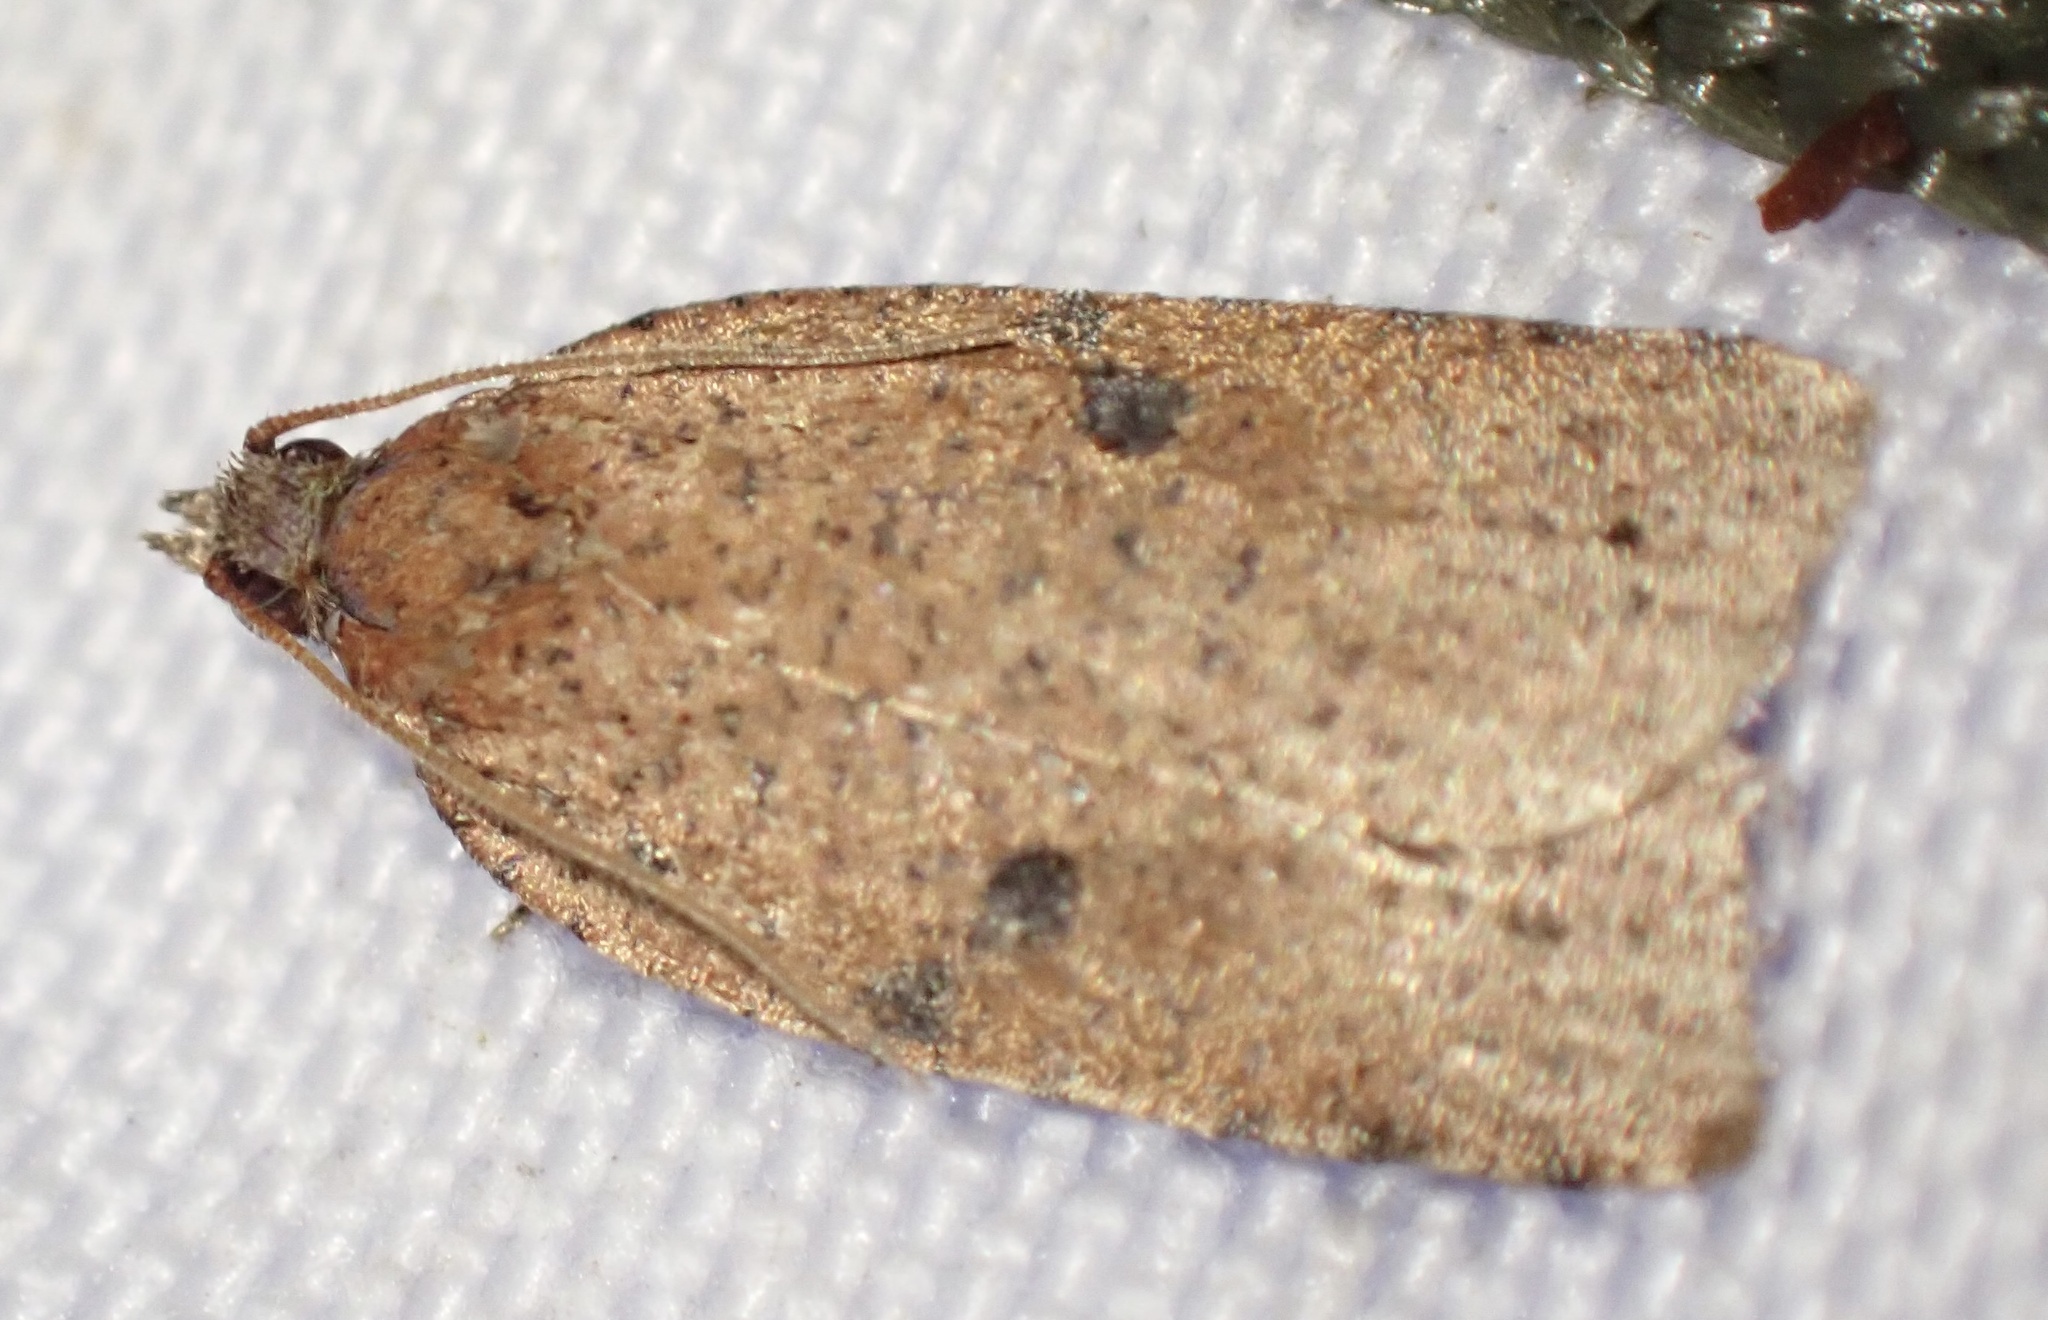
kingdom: Animalia
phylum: Arthropoda
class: Insecta
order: Lepidoptera
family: Tortricidae
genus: Meritastis
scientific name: Meritastis polygraphana
